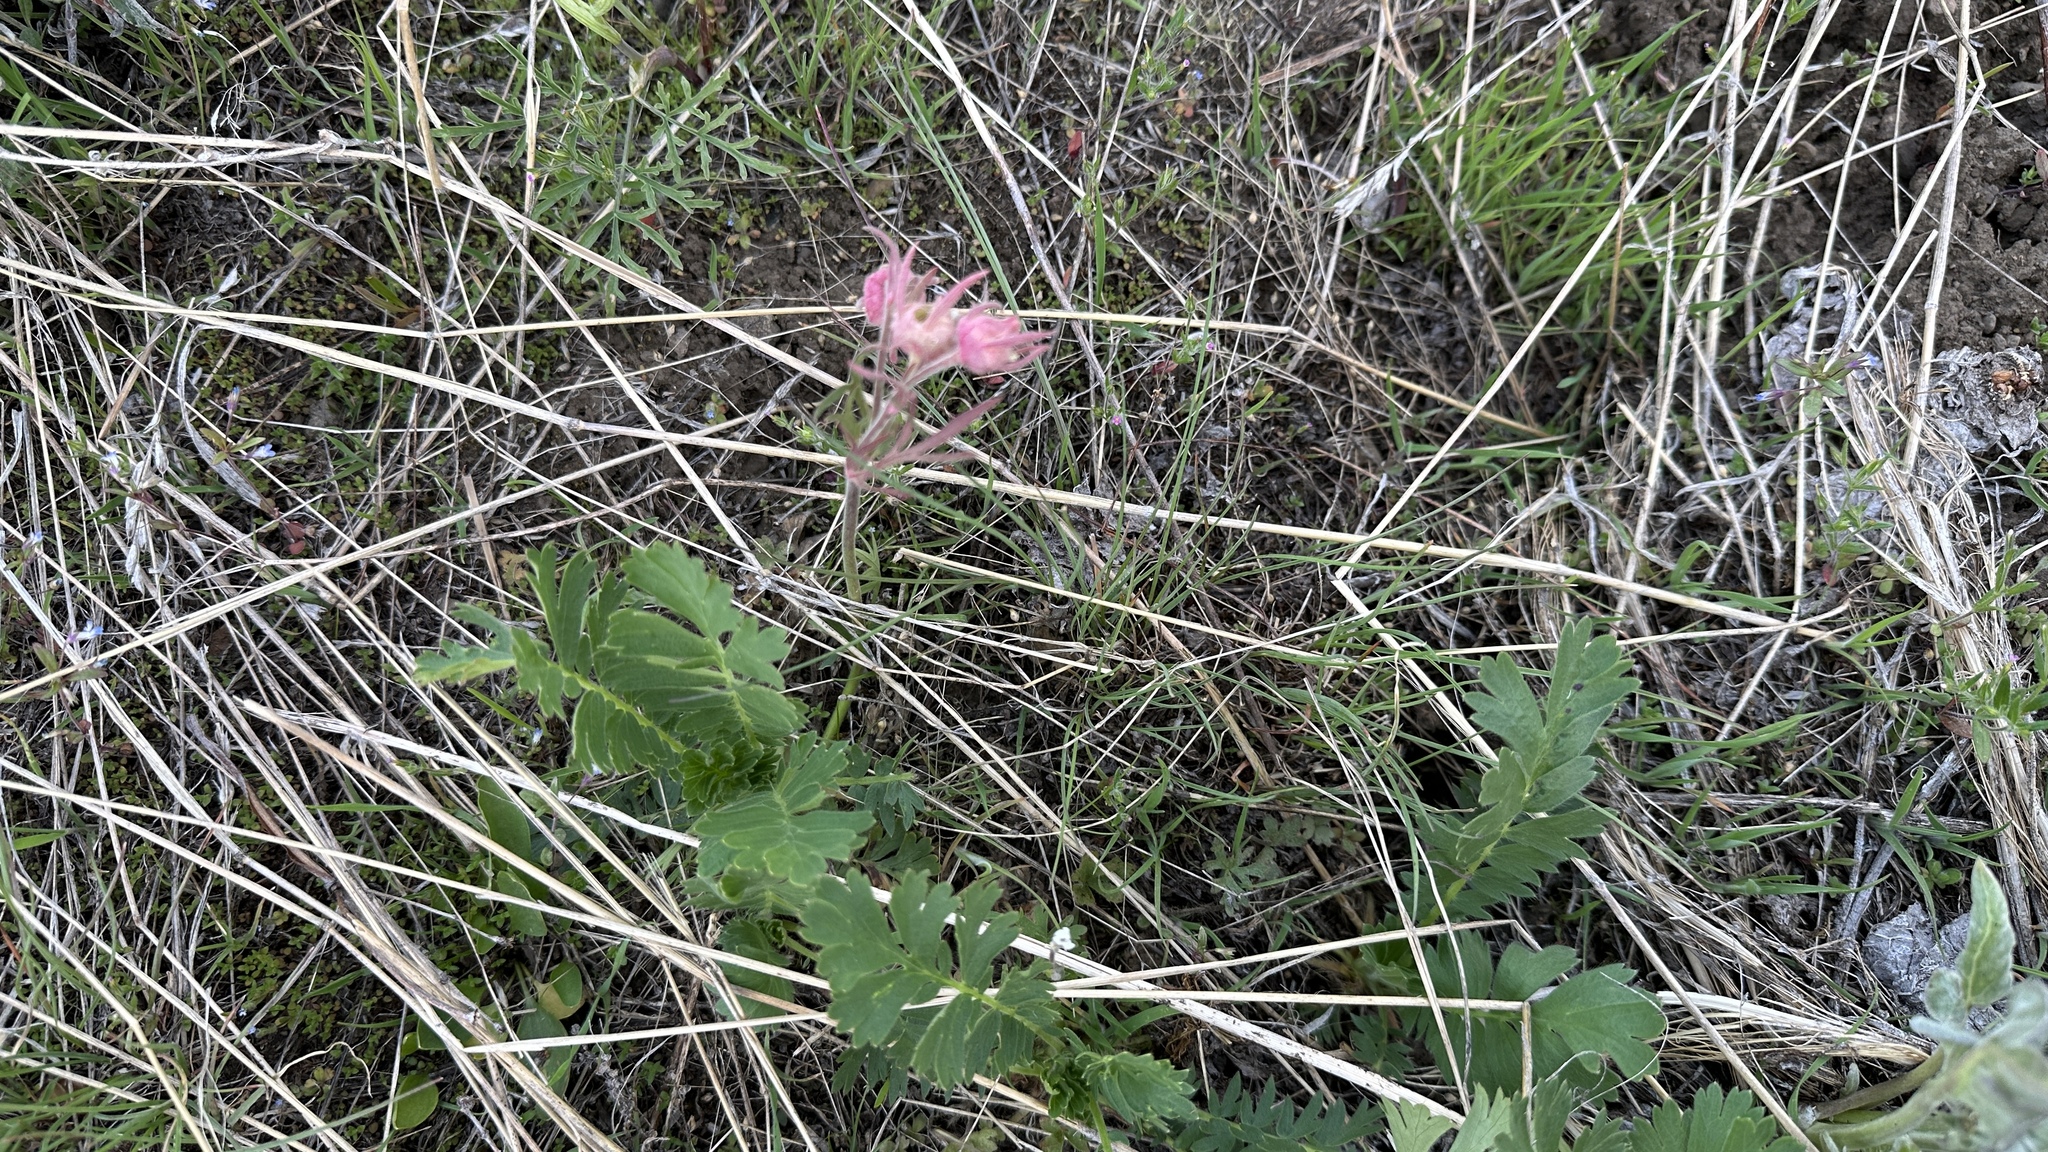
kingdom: Plantae
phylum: Tracheophyta
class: Magnoliopsida
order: Rosales
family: Rosaceae
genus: Geum
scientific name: Geum triflorum
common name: Old man's whiskers
